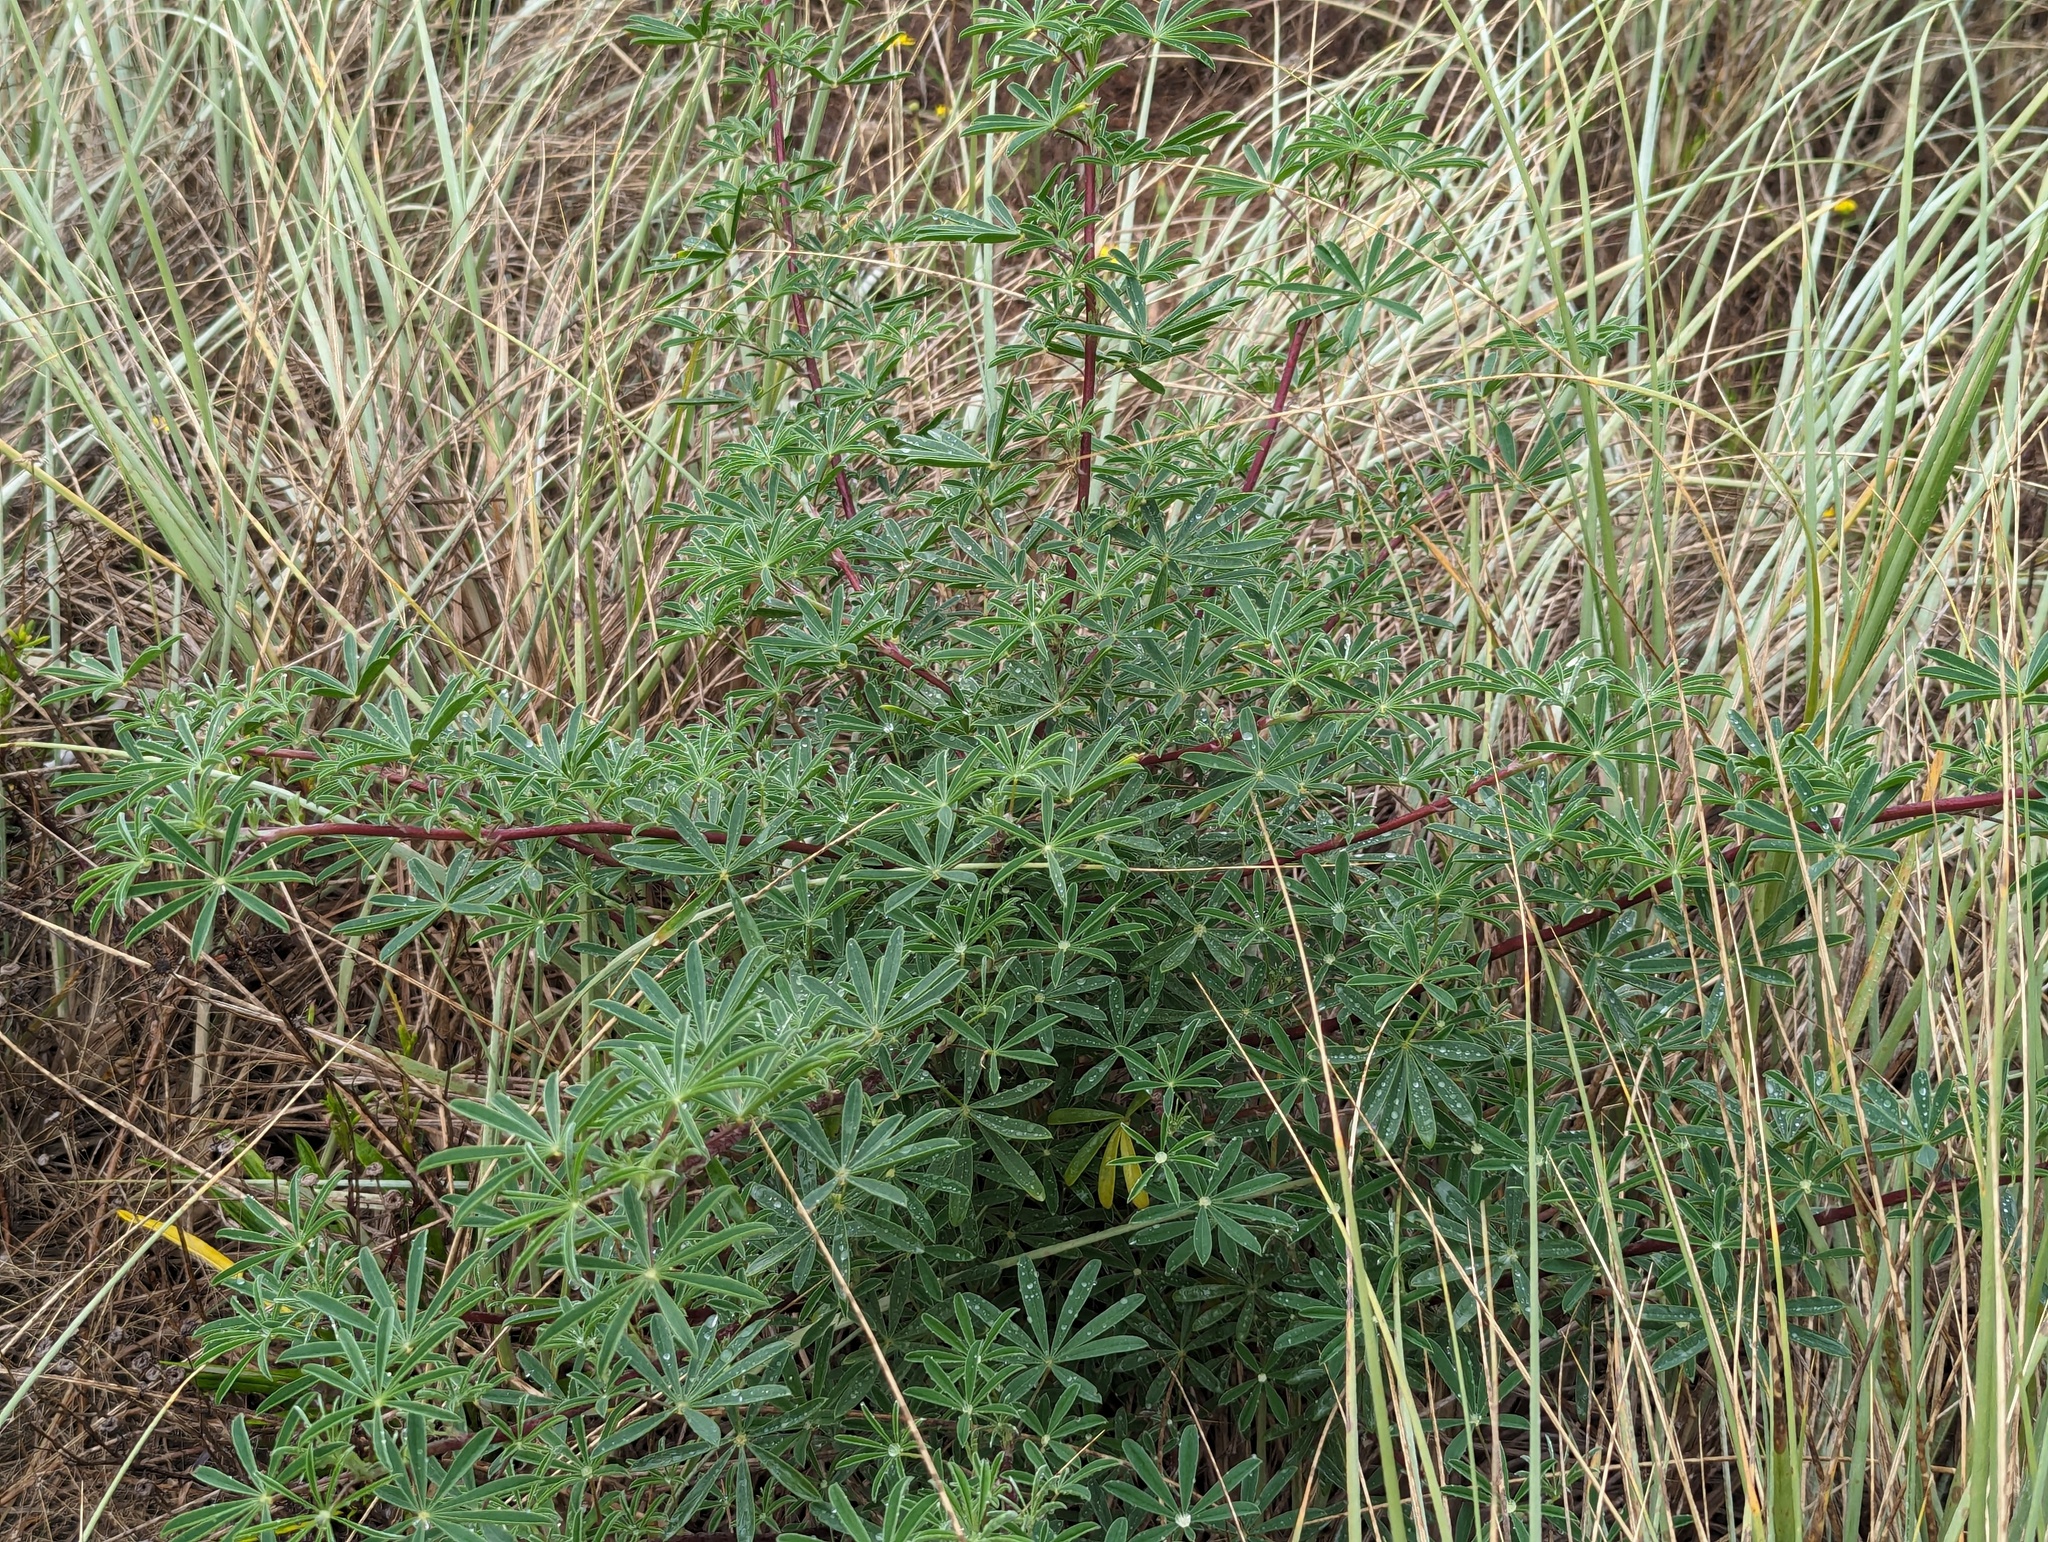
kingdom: Plantae
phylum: Tracheophyta
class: Magnoliopsida
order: Fabales
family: Fabaceae
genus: Lupinus
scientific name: Lupinus arboreus
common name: Yellow bush lupine
